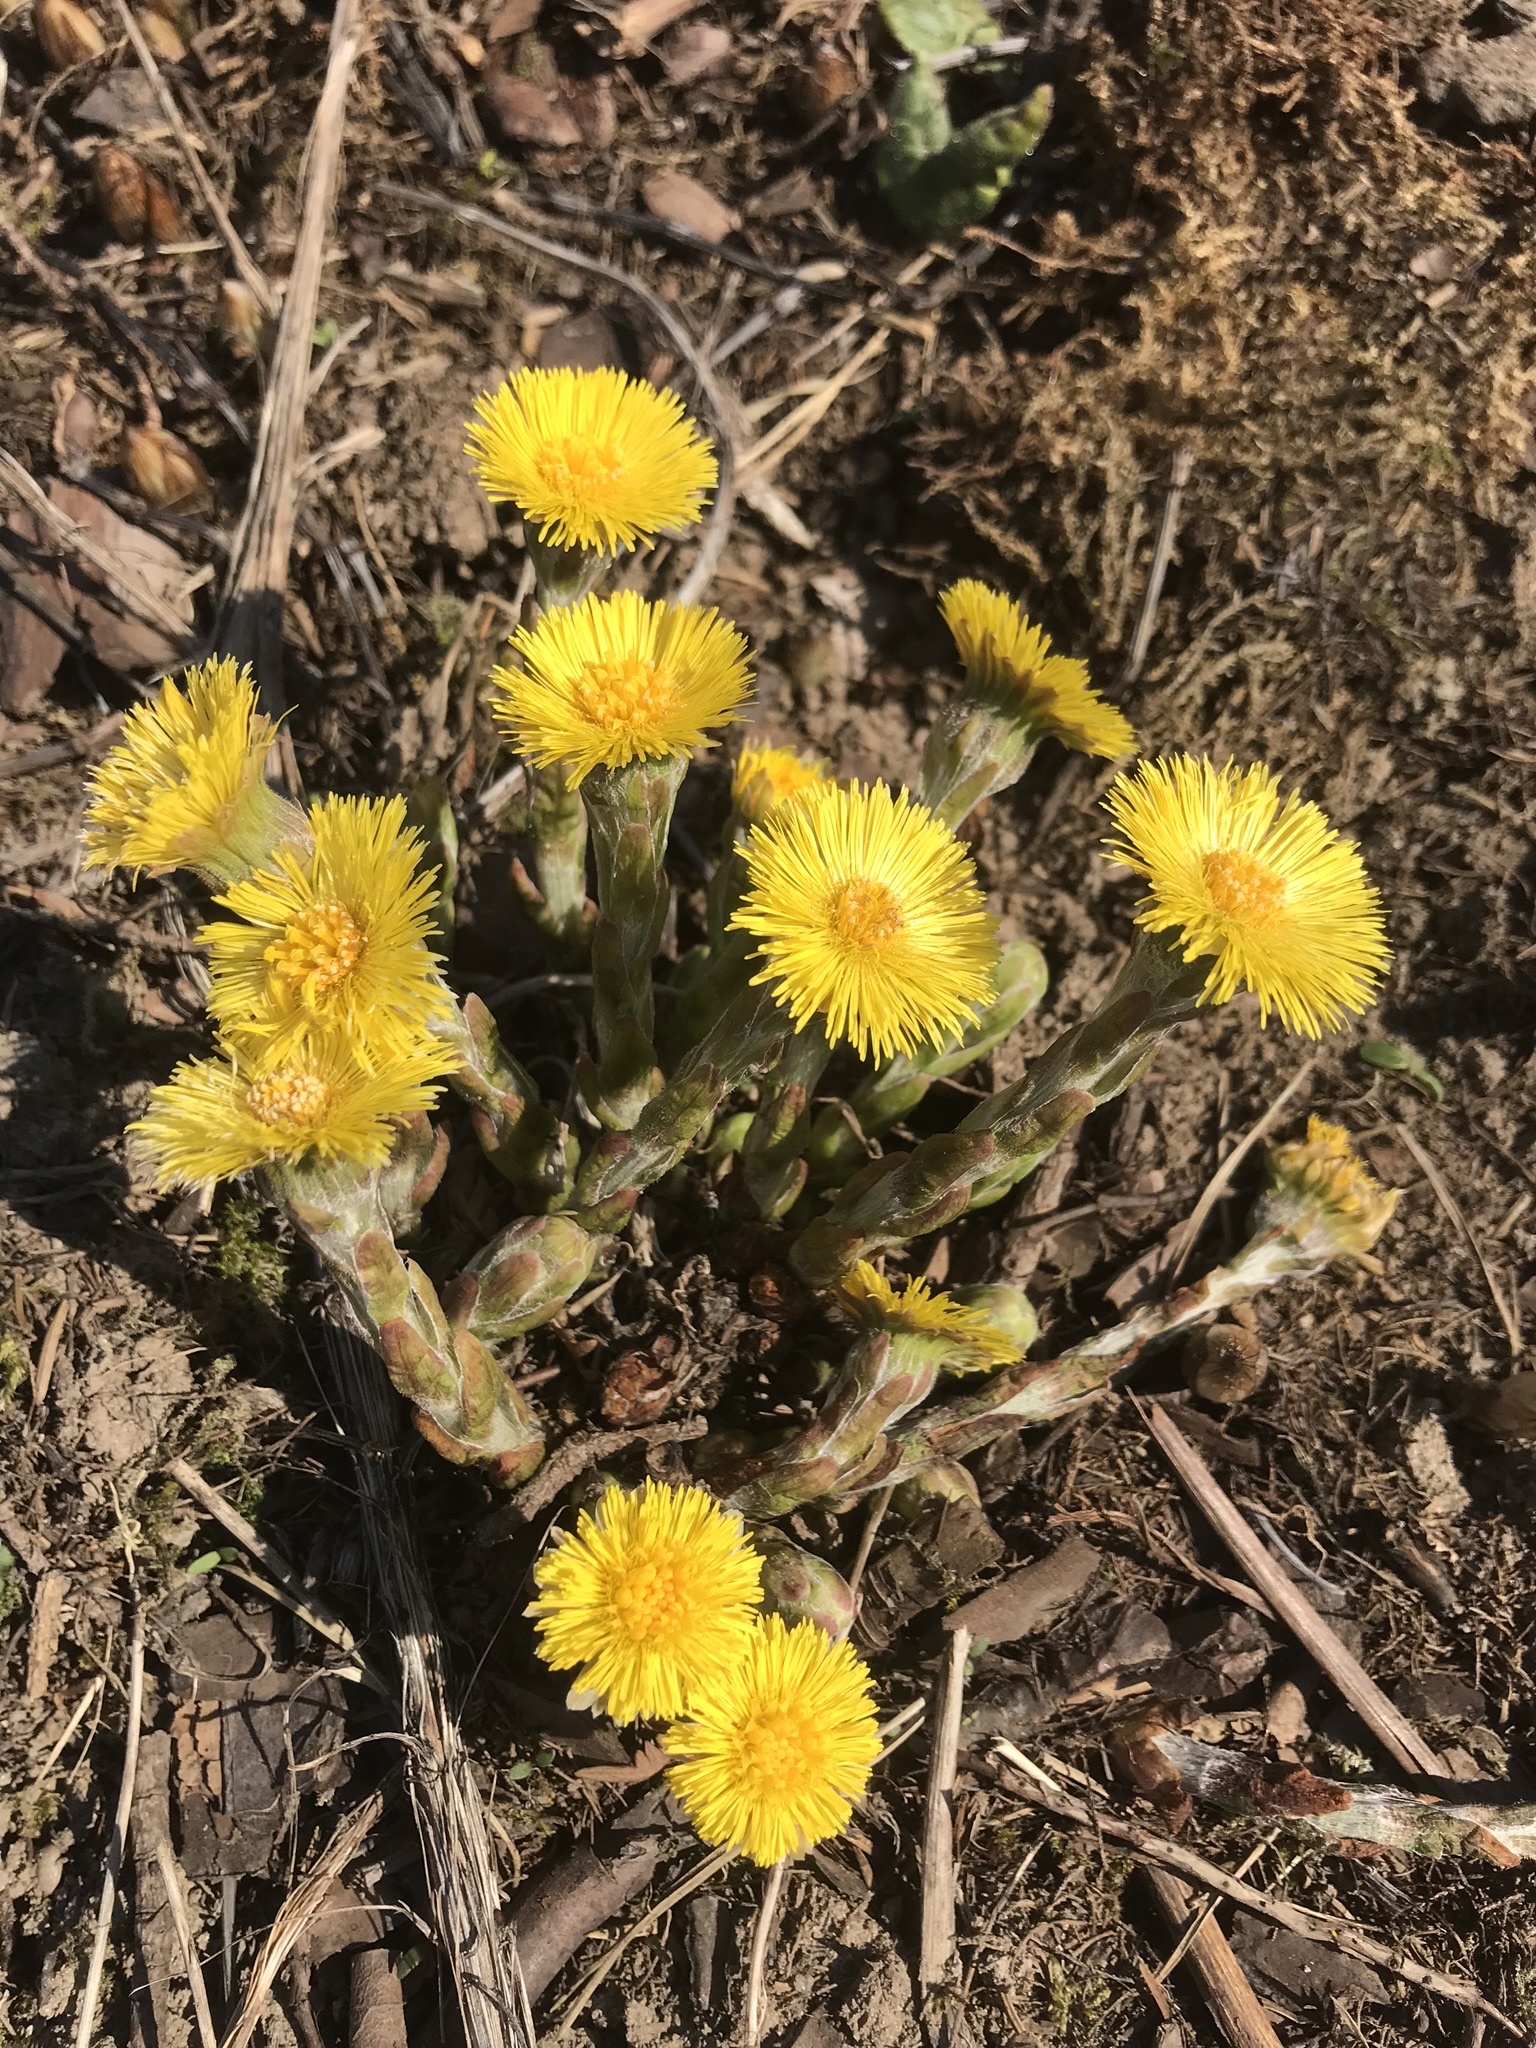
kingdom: Plantae
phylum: Tracheophyta
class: Magnoliopsida
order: Asterales
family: Asteraceae
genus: Tussilago
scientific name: Tussilago farfara
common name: Coltsfoot
